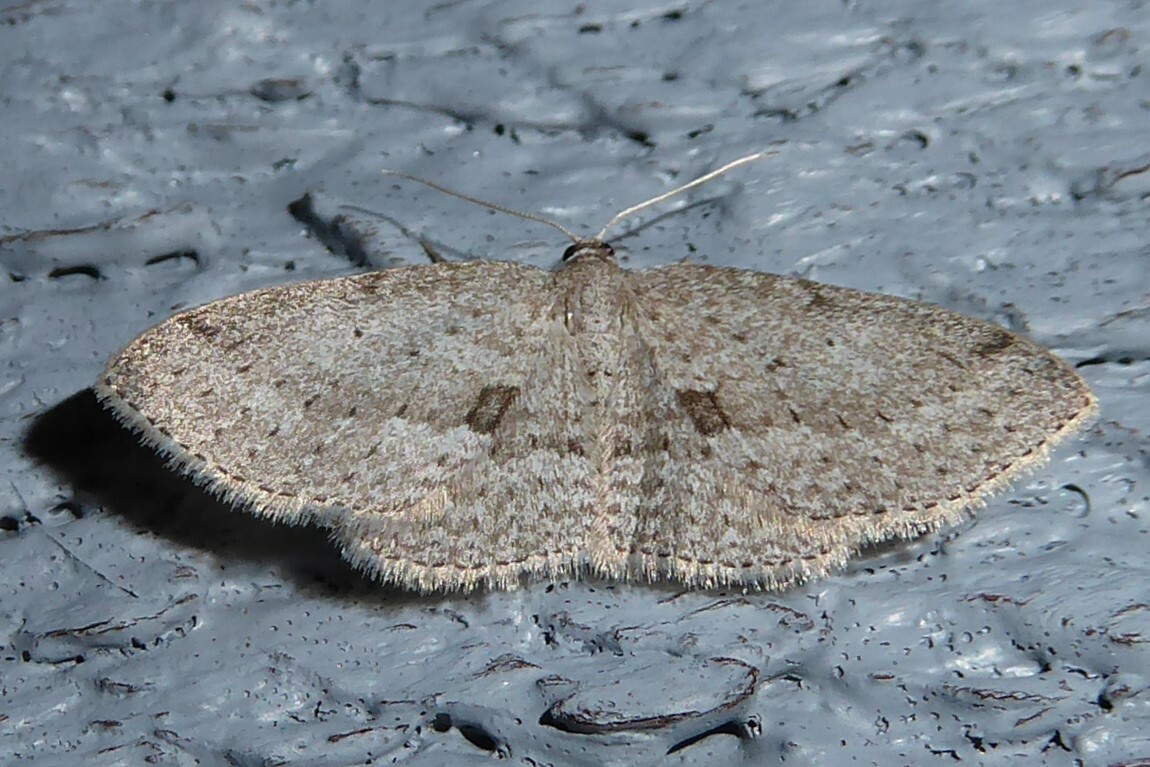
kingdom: Animalia
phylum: Arthropoda
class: Insecta
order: Lepidoptera
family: Geometridae
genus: Poecilasthena
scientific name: Poecilasthena schistaria
